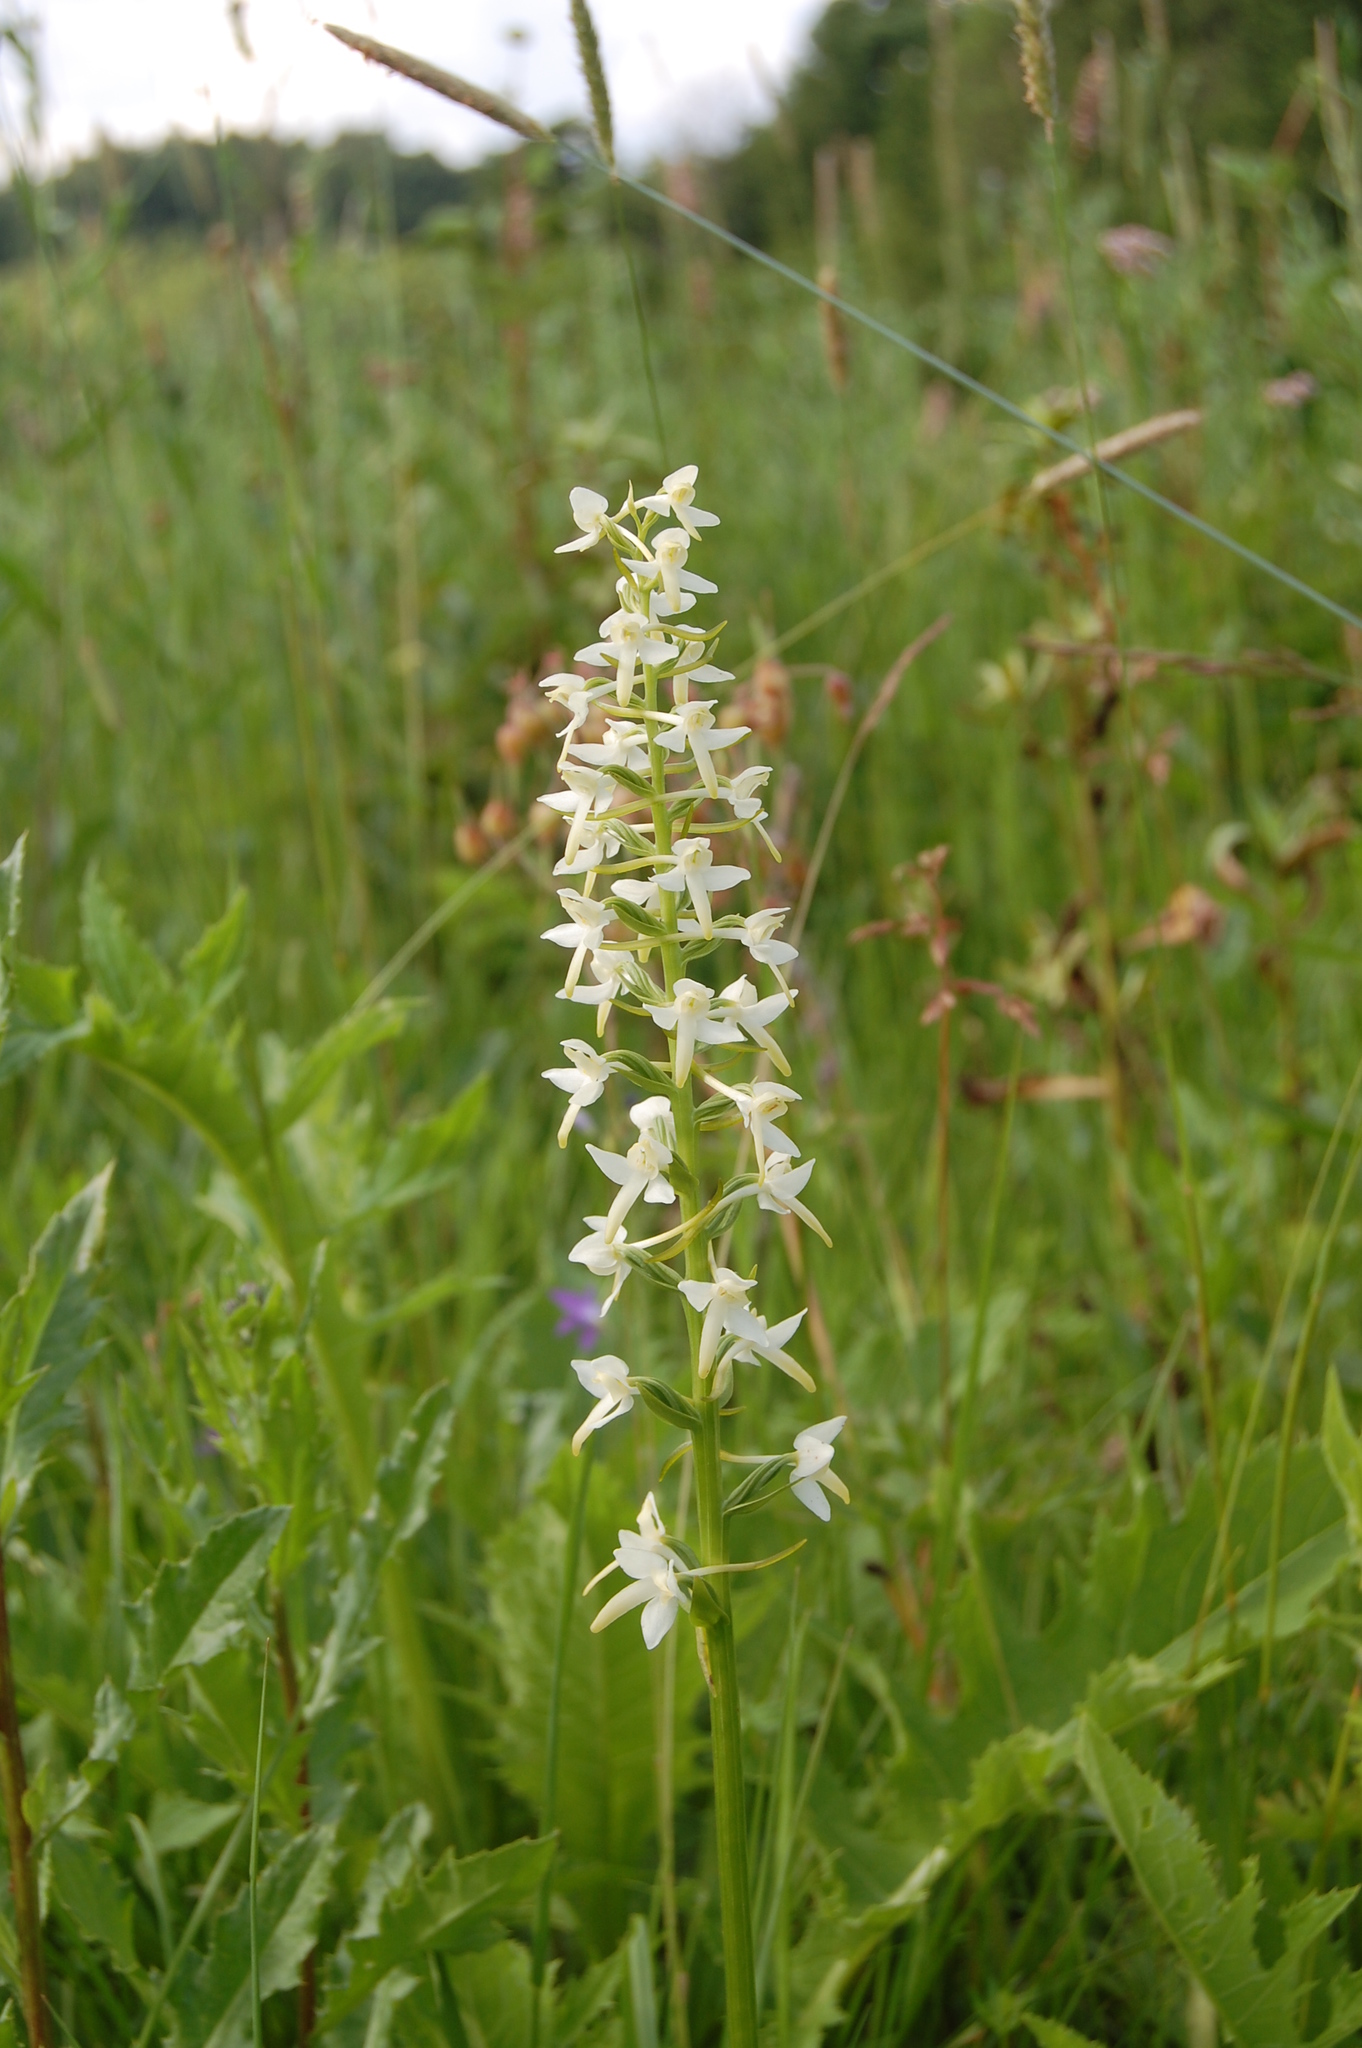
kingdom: Plantae
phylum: Tracheophyta
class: Liliopsida
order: Asparagales
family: Orchidaceae
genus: Platanthera
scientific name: Platanthera bifolia
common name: Lesser butterfly-orchid
